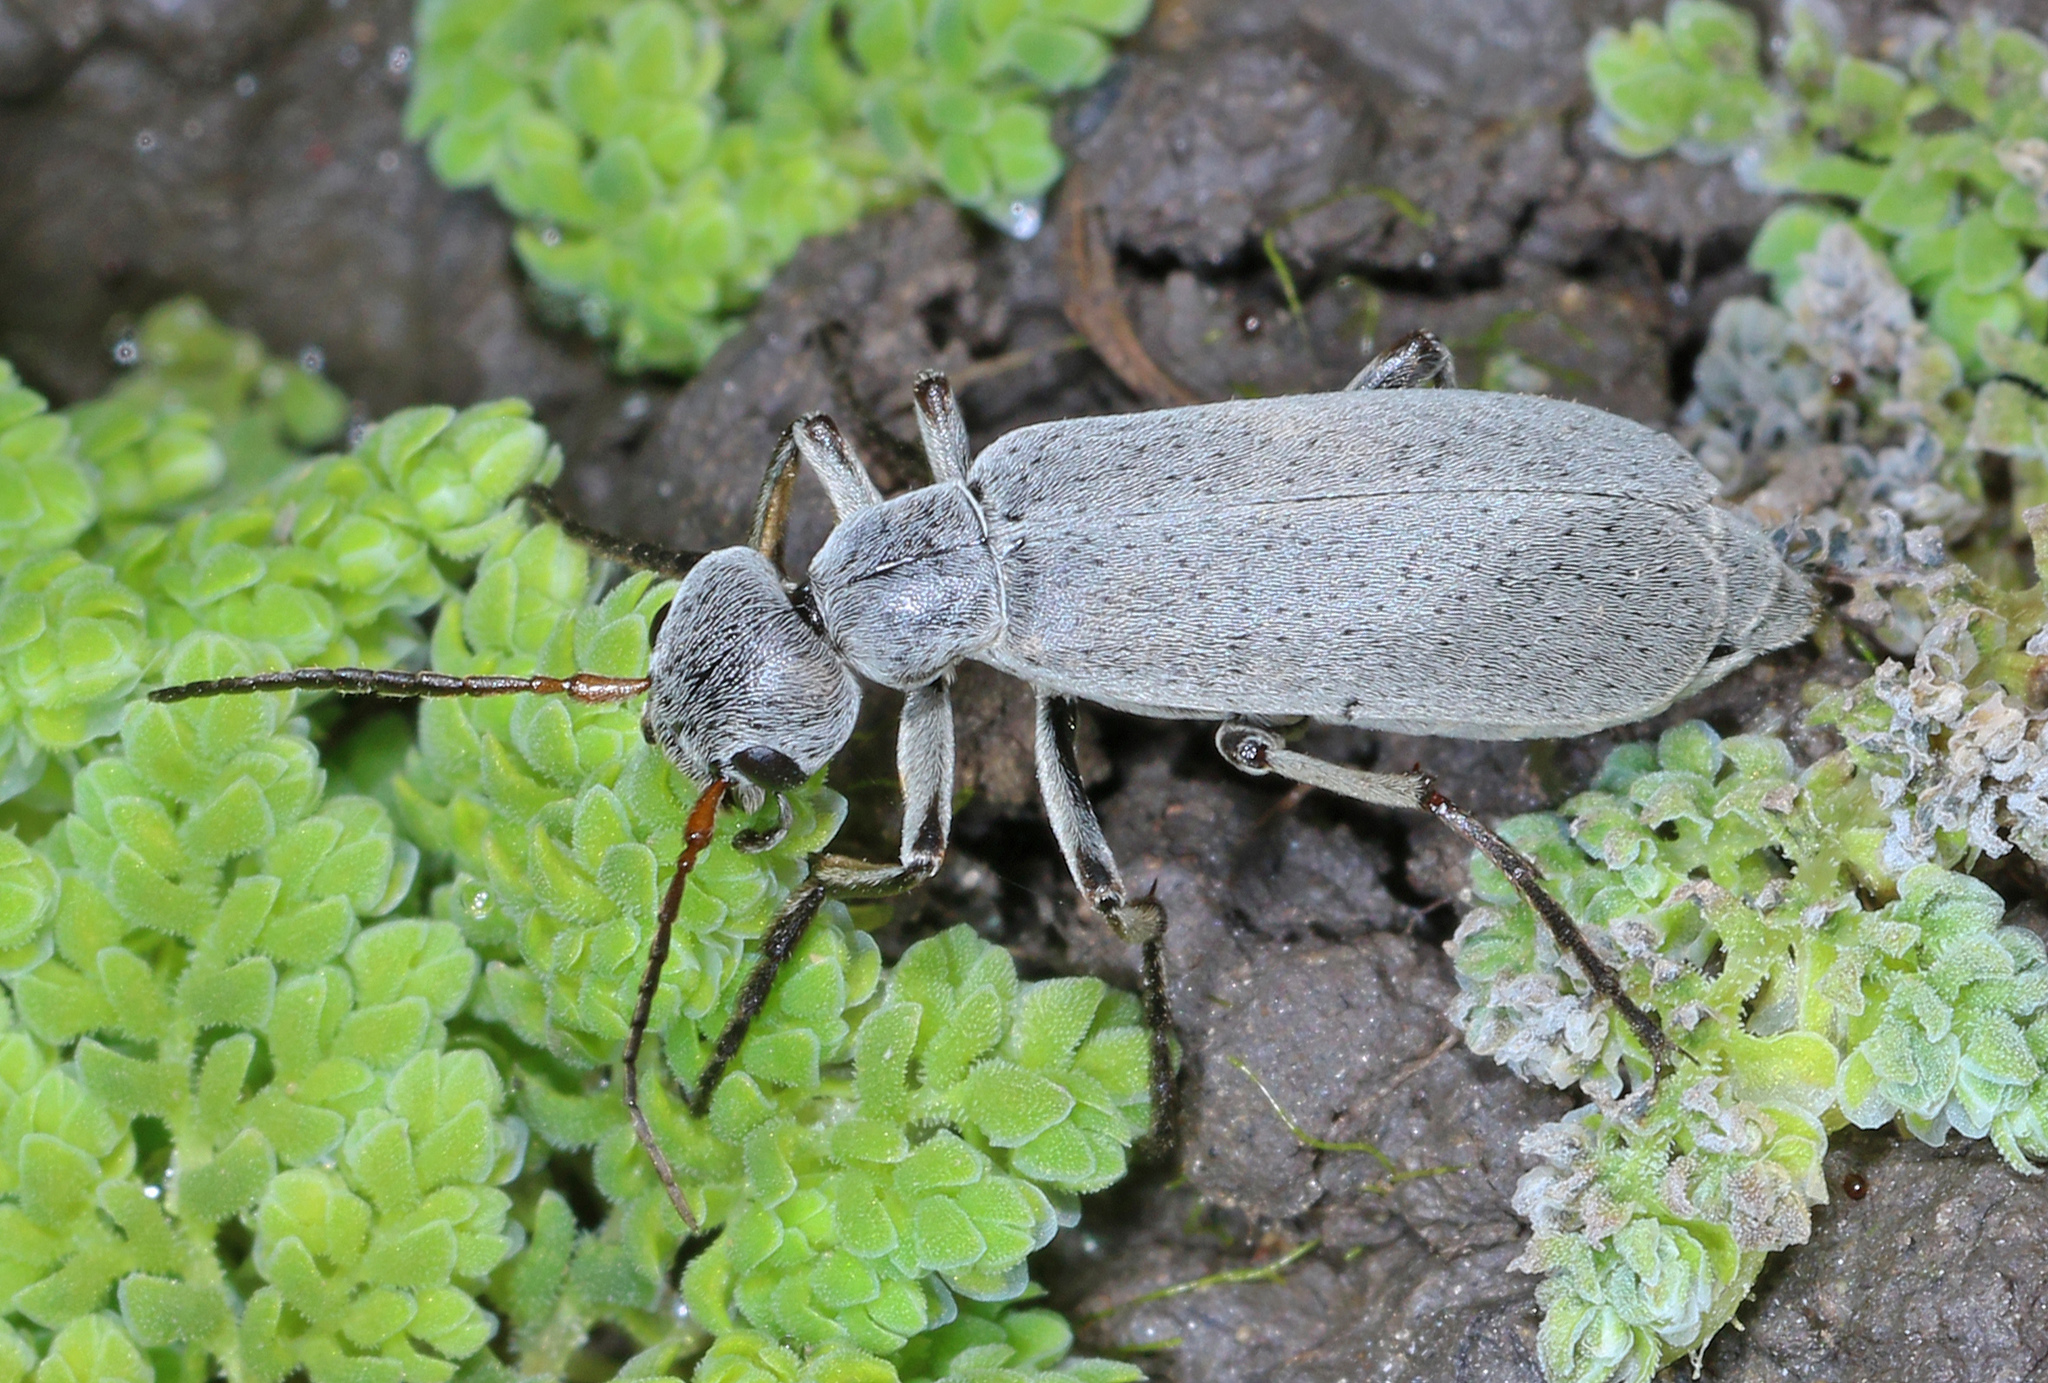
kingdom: Animalia
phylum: Arthropoda
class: Insecta
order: Coleoptera
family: Meloidae
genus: Epicauta
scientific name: Epicauta velata
